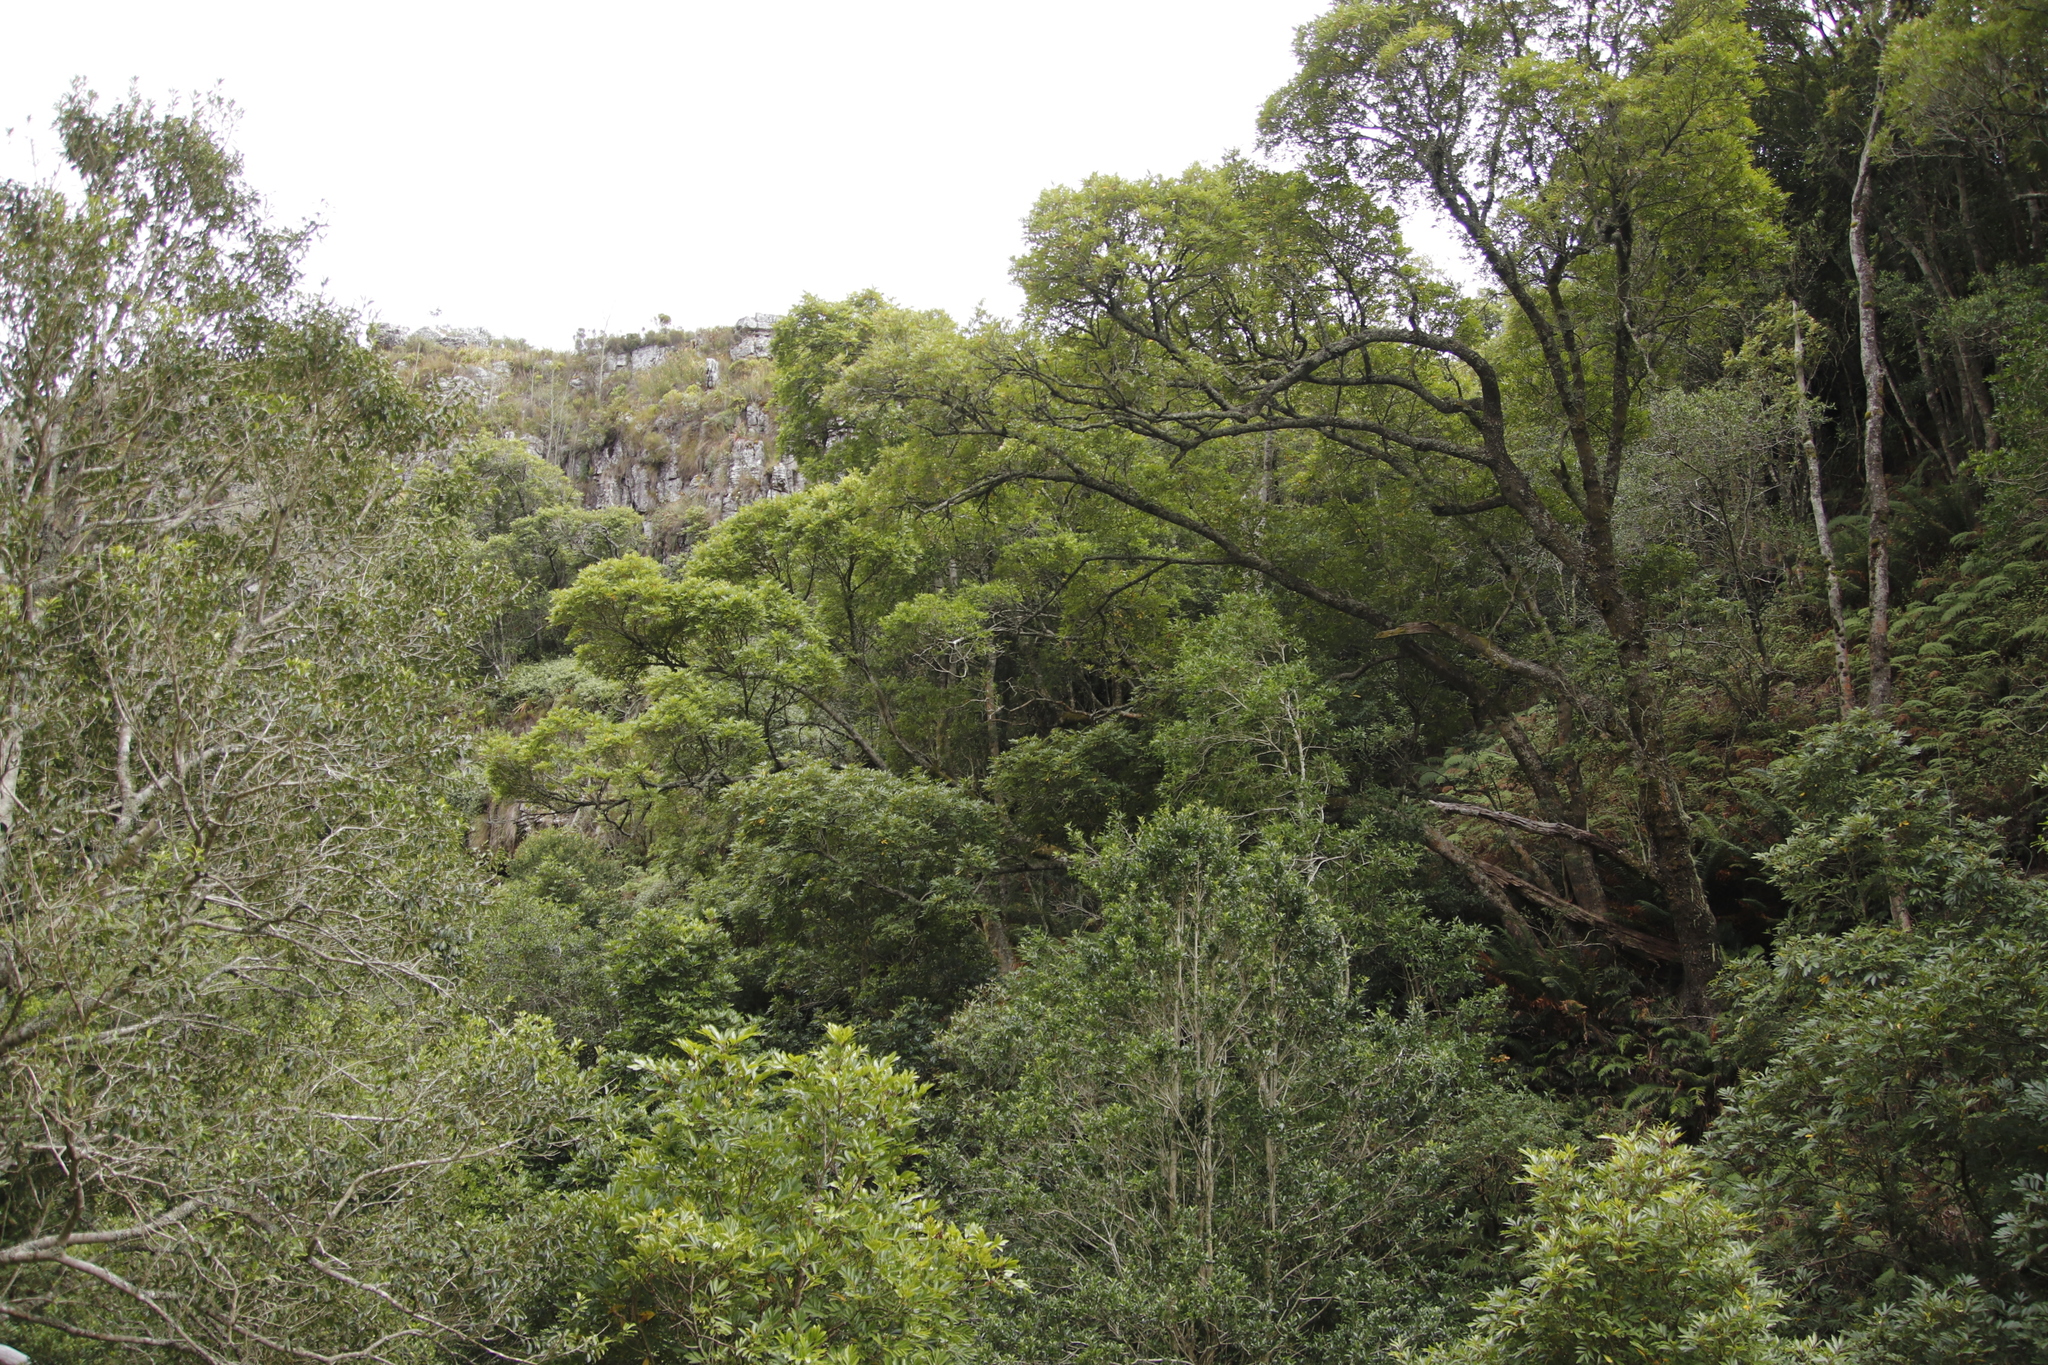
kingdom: Plantae
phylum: Tracheophyta
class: Magnoliopsida
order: Oxalidales
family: Cunoniaceae
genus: Cunonia
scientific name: Cunonia capensis
